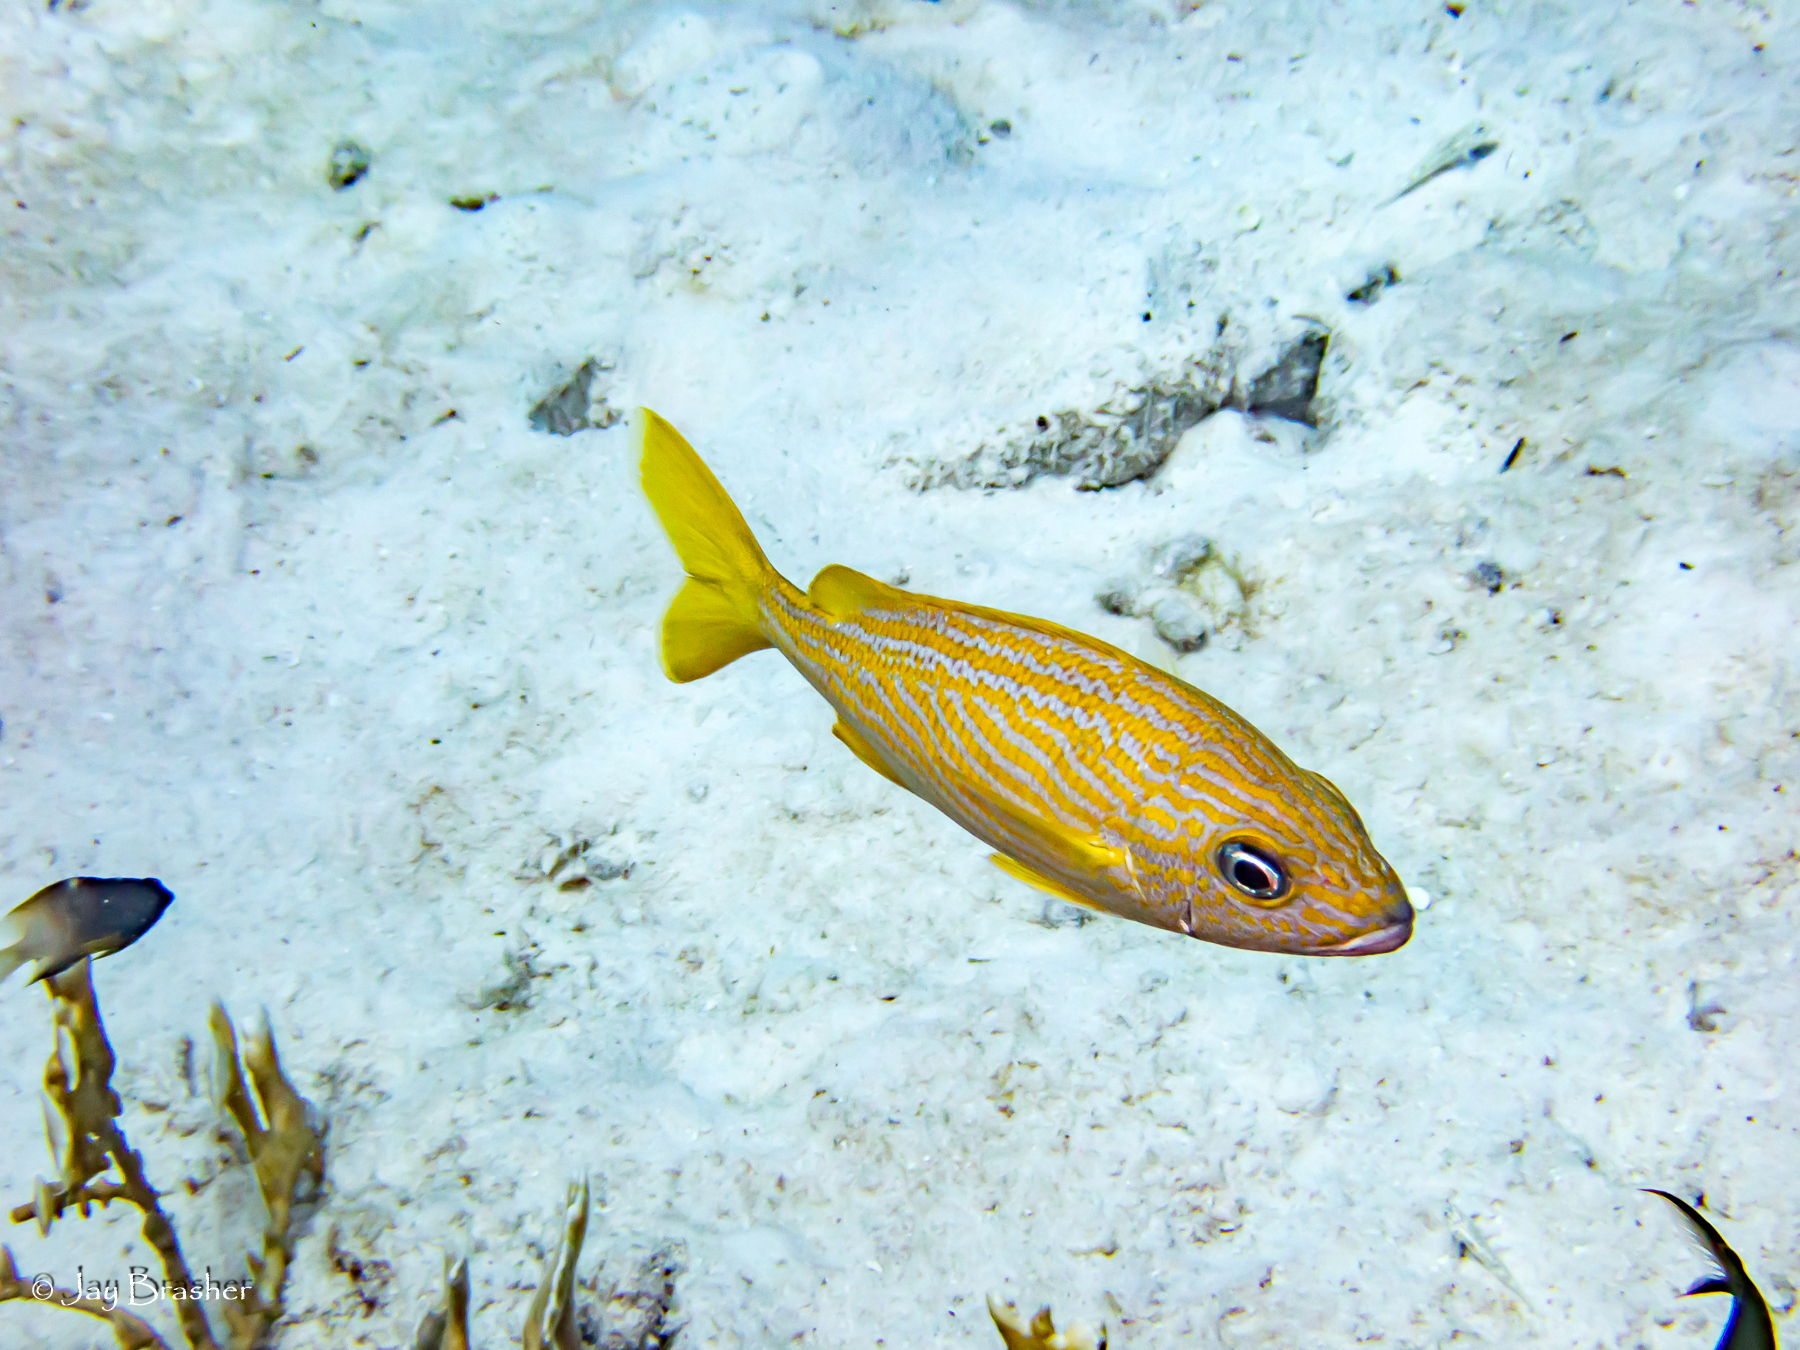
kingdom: Animalia
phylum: Chordata
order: Perciformes
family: Haemulidae
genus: Haemulon
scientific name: Haemulon flavolineatum
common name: French grunt
